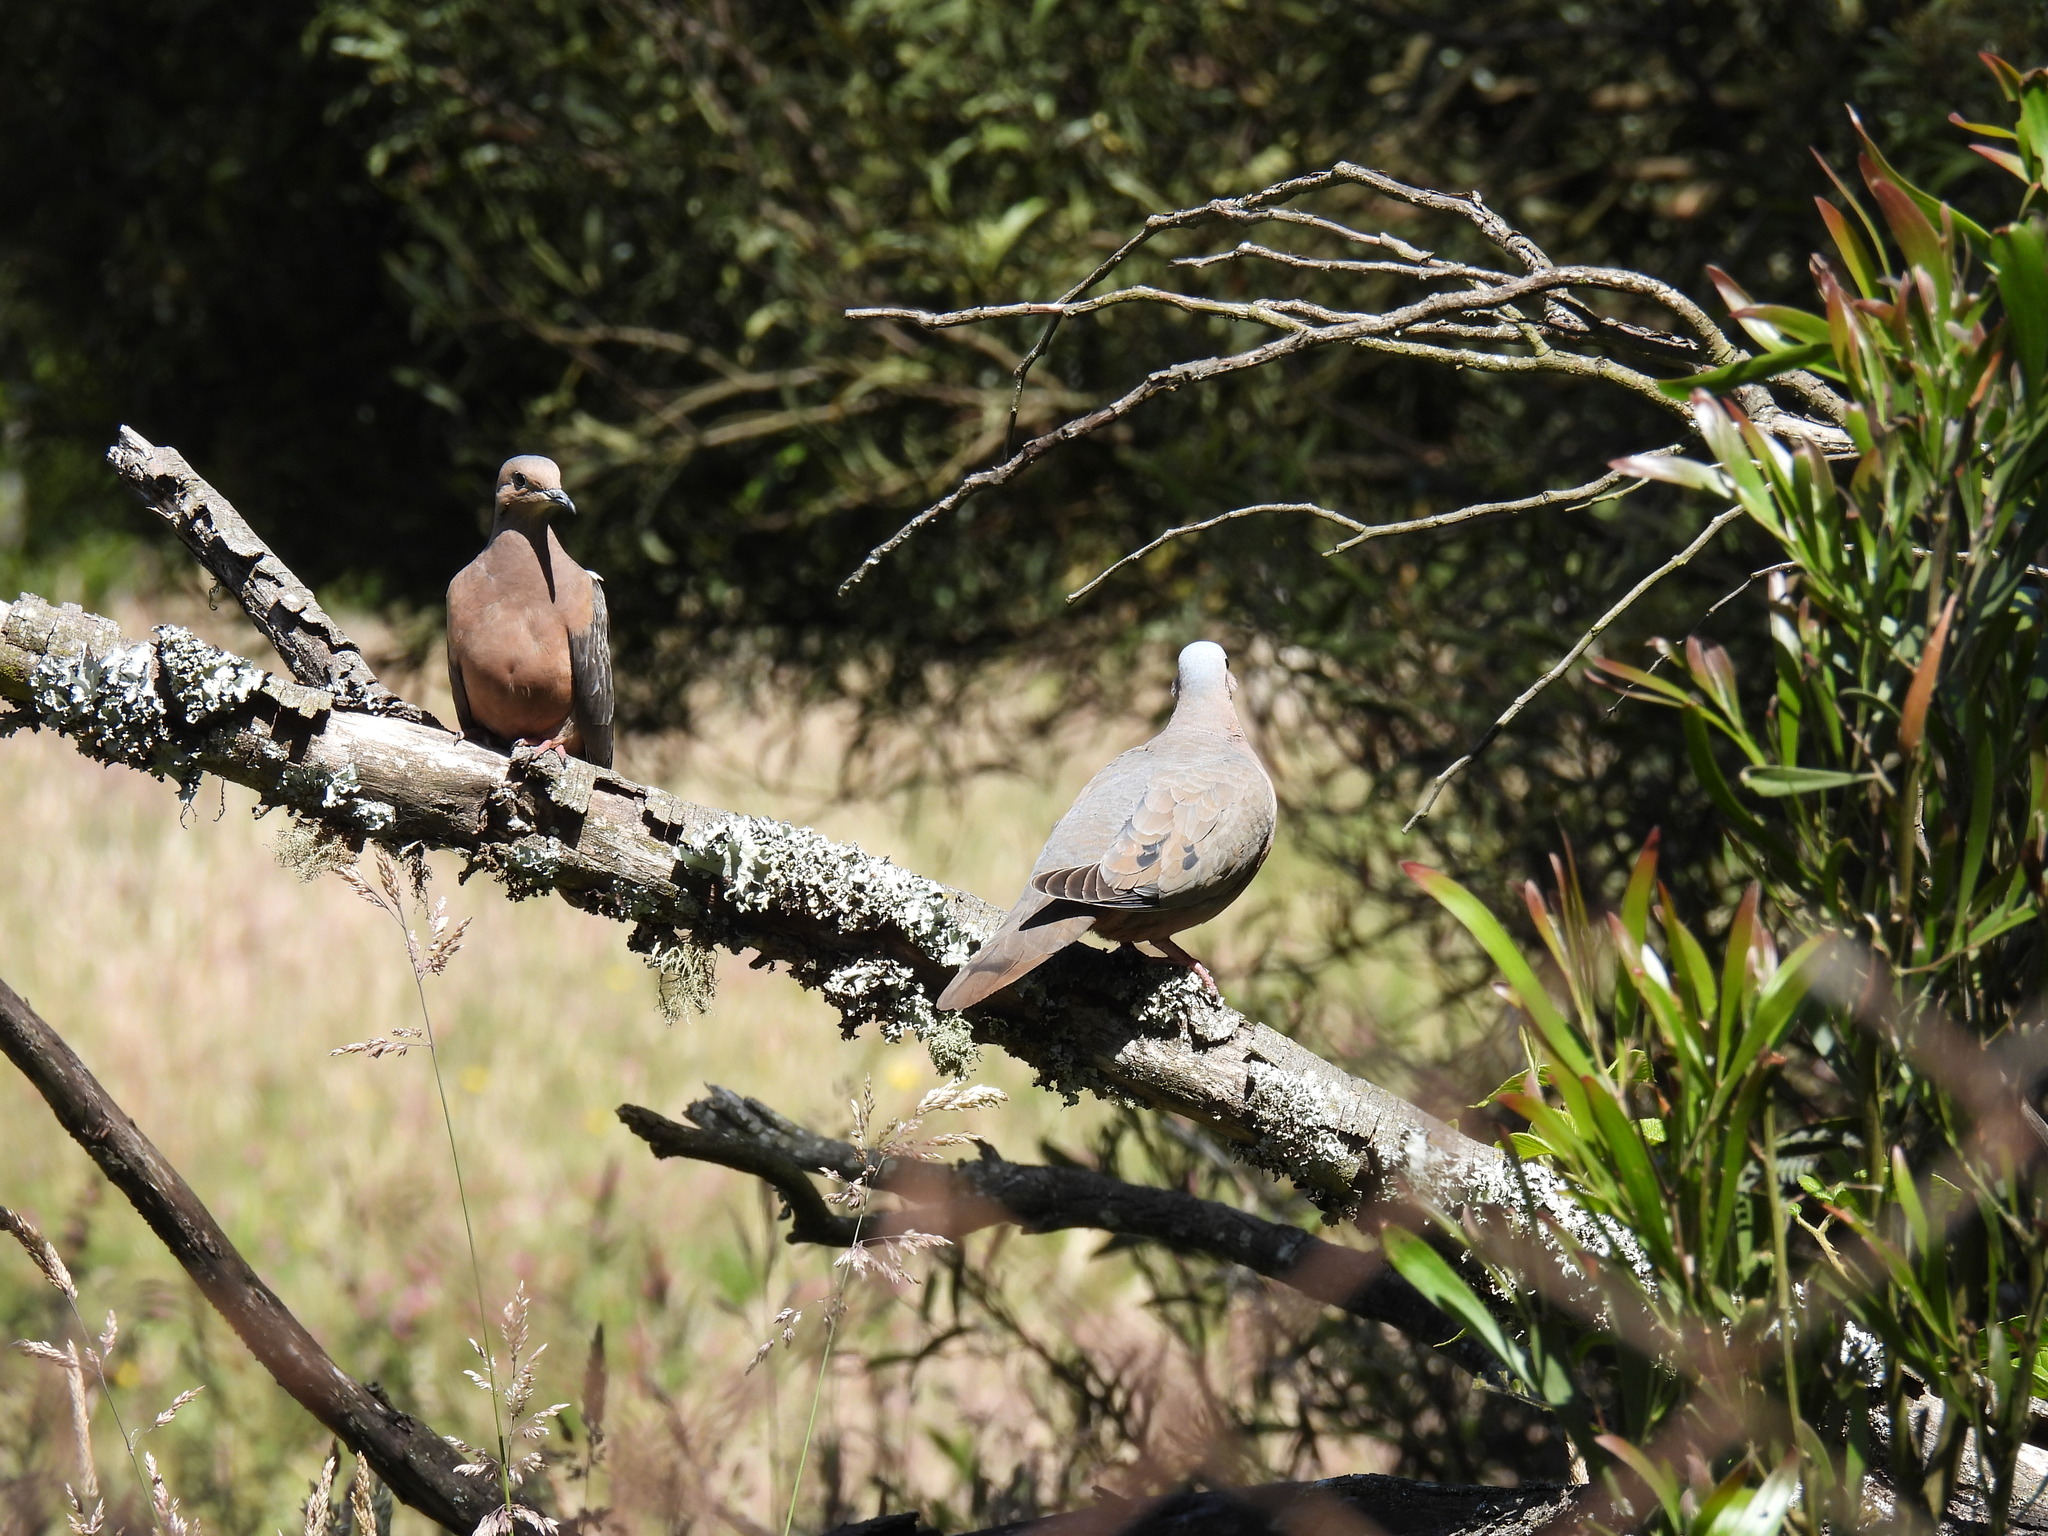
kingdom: Animalia
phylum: Chordata
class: Aves
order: Columbiformes
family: Columbidae
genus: Zenaida
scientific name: Zenaida auriculata
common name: Eared dove
